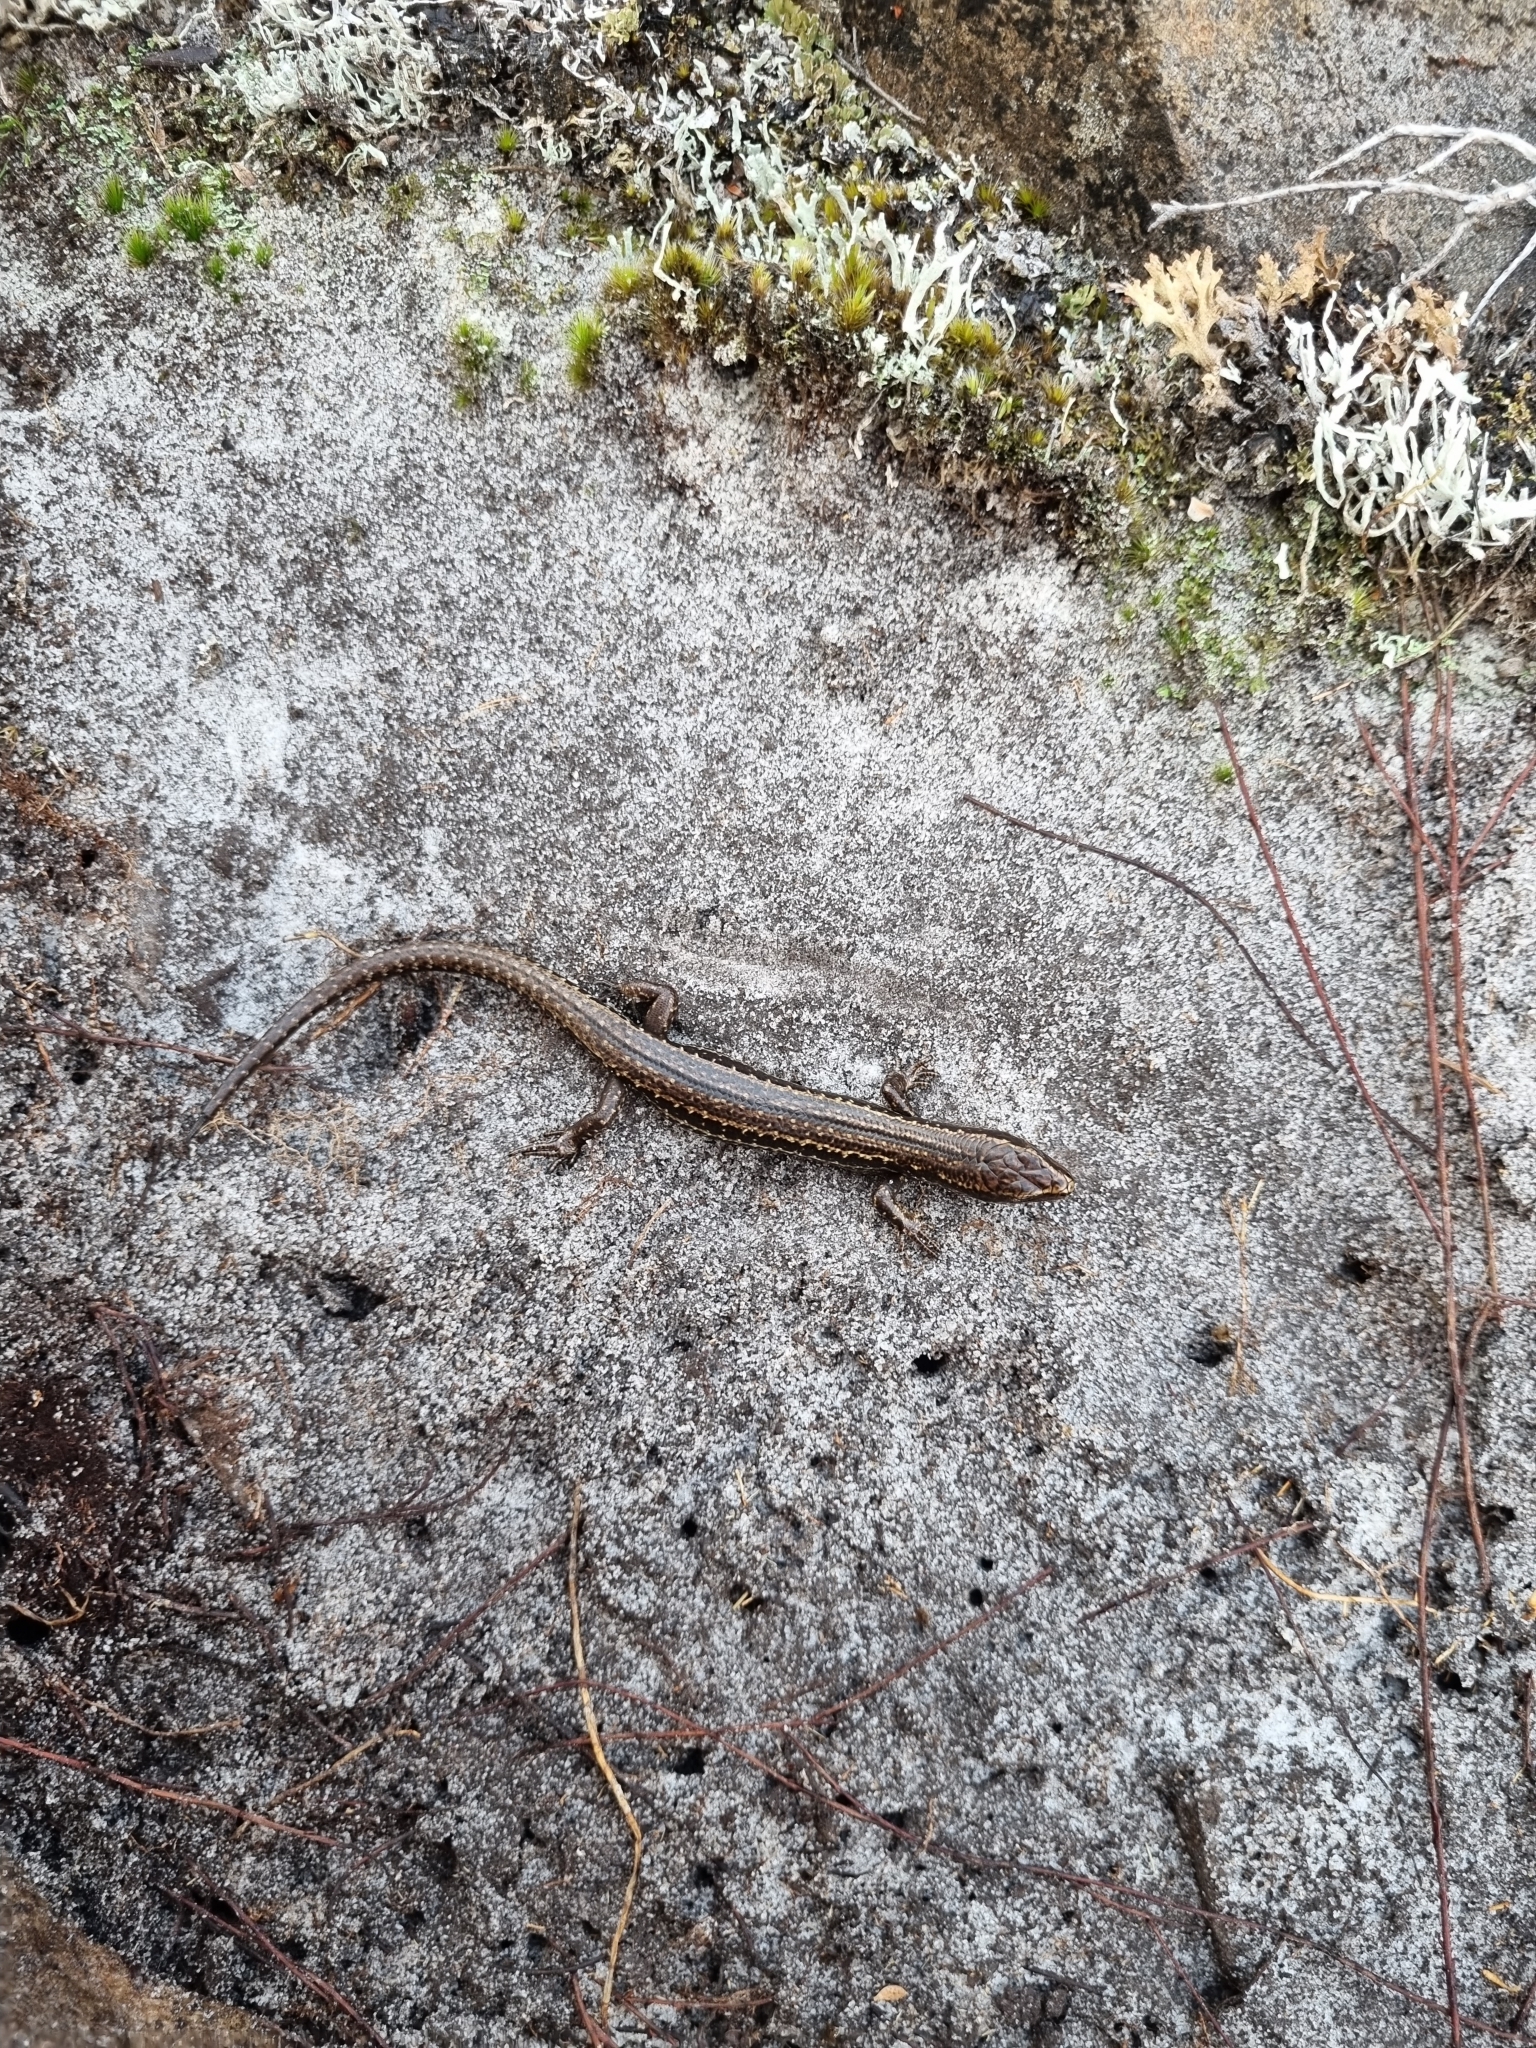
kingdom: Animalia
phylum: Chordata
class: Squamata
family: Scincidae
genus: Oligosoma
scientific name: Oligosoma newmani
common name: Newman’s speckled skink
